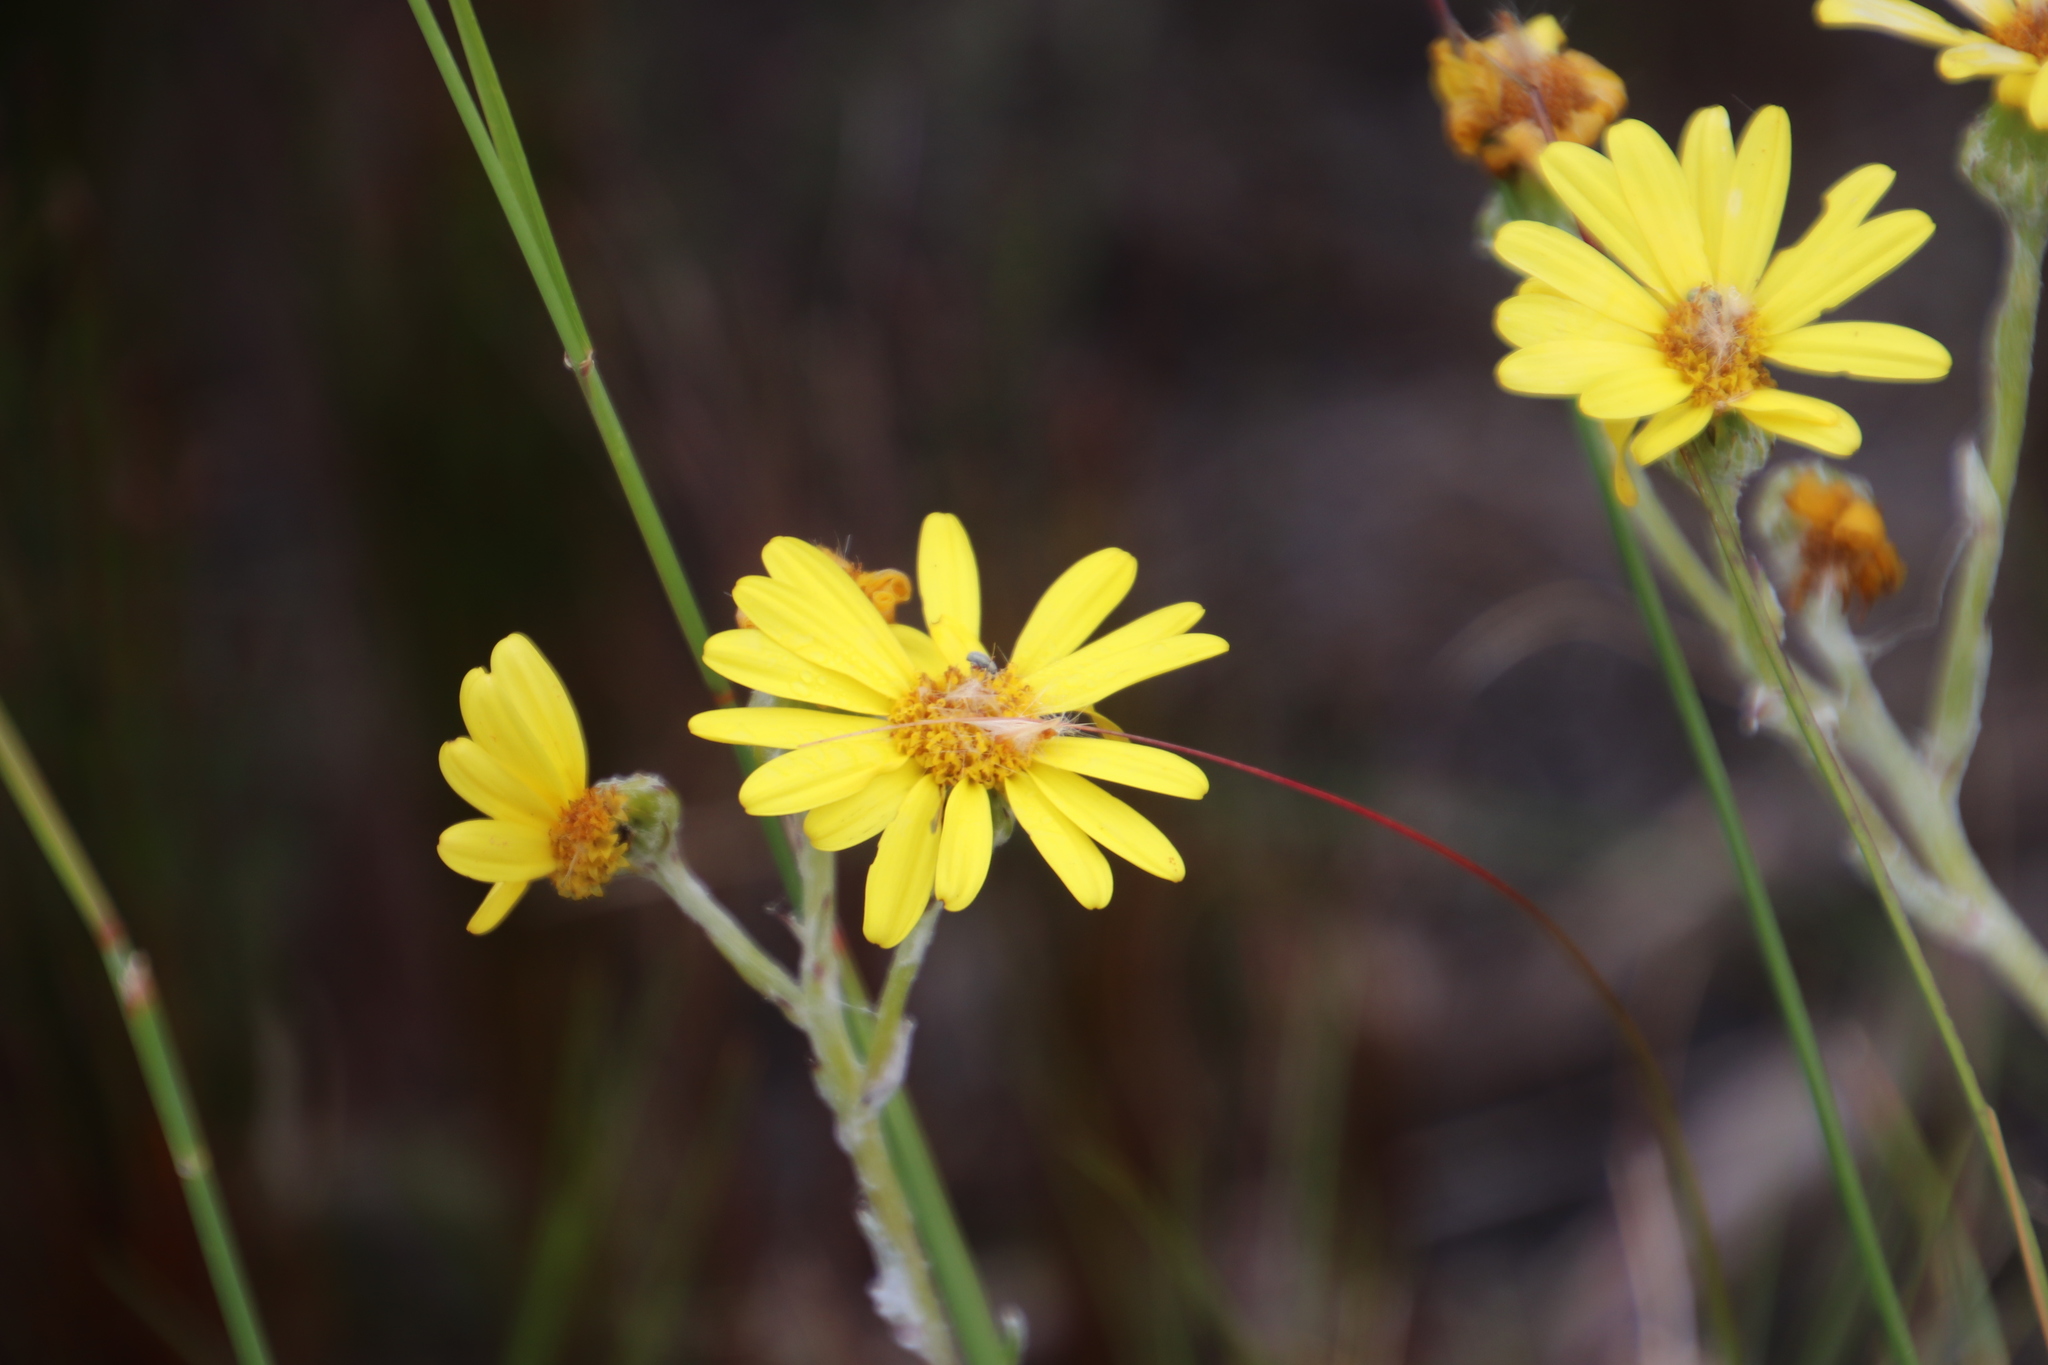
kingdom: Plantae
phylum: Tracheophyta
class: Magnoliopsida
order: Asterales
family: Asteraceae
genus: Senecio
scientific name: Senecio arniciflorus
